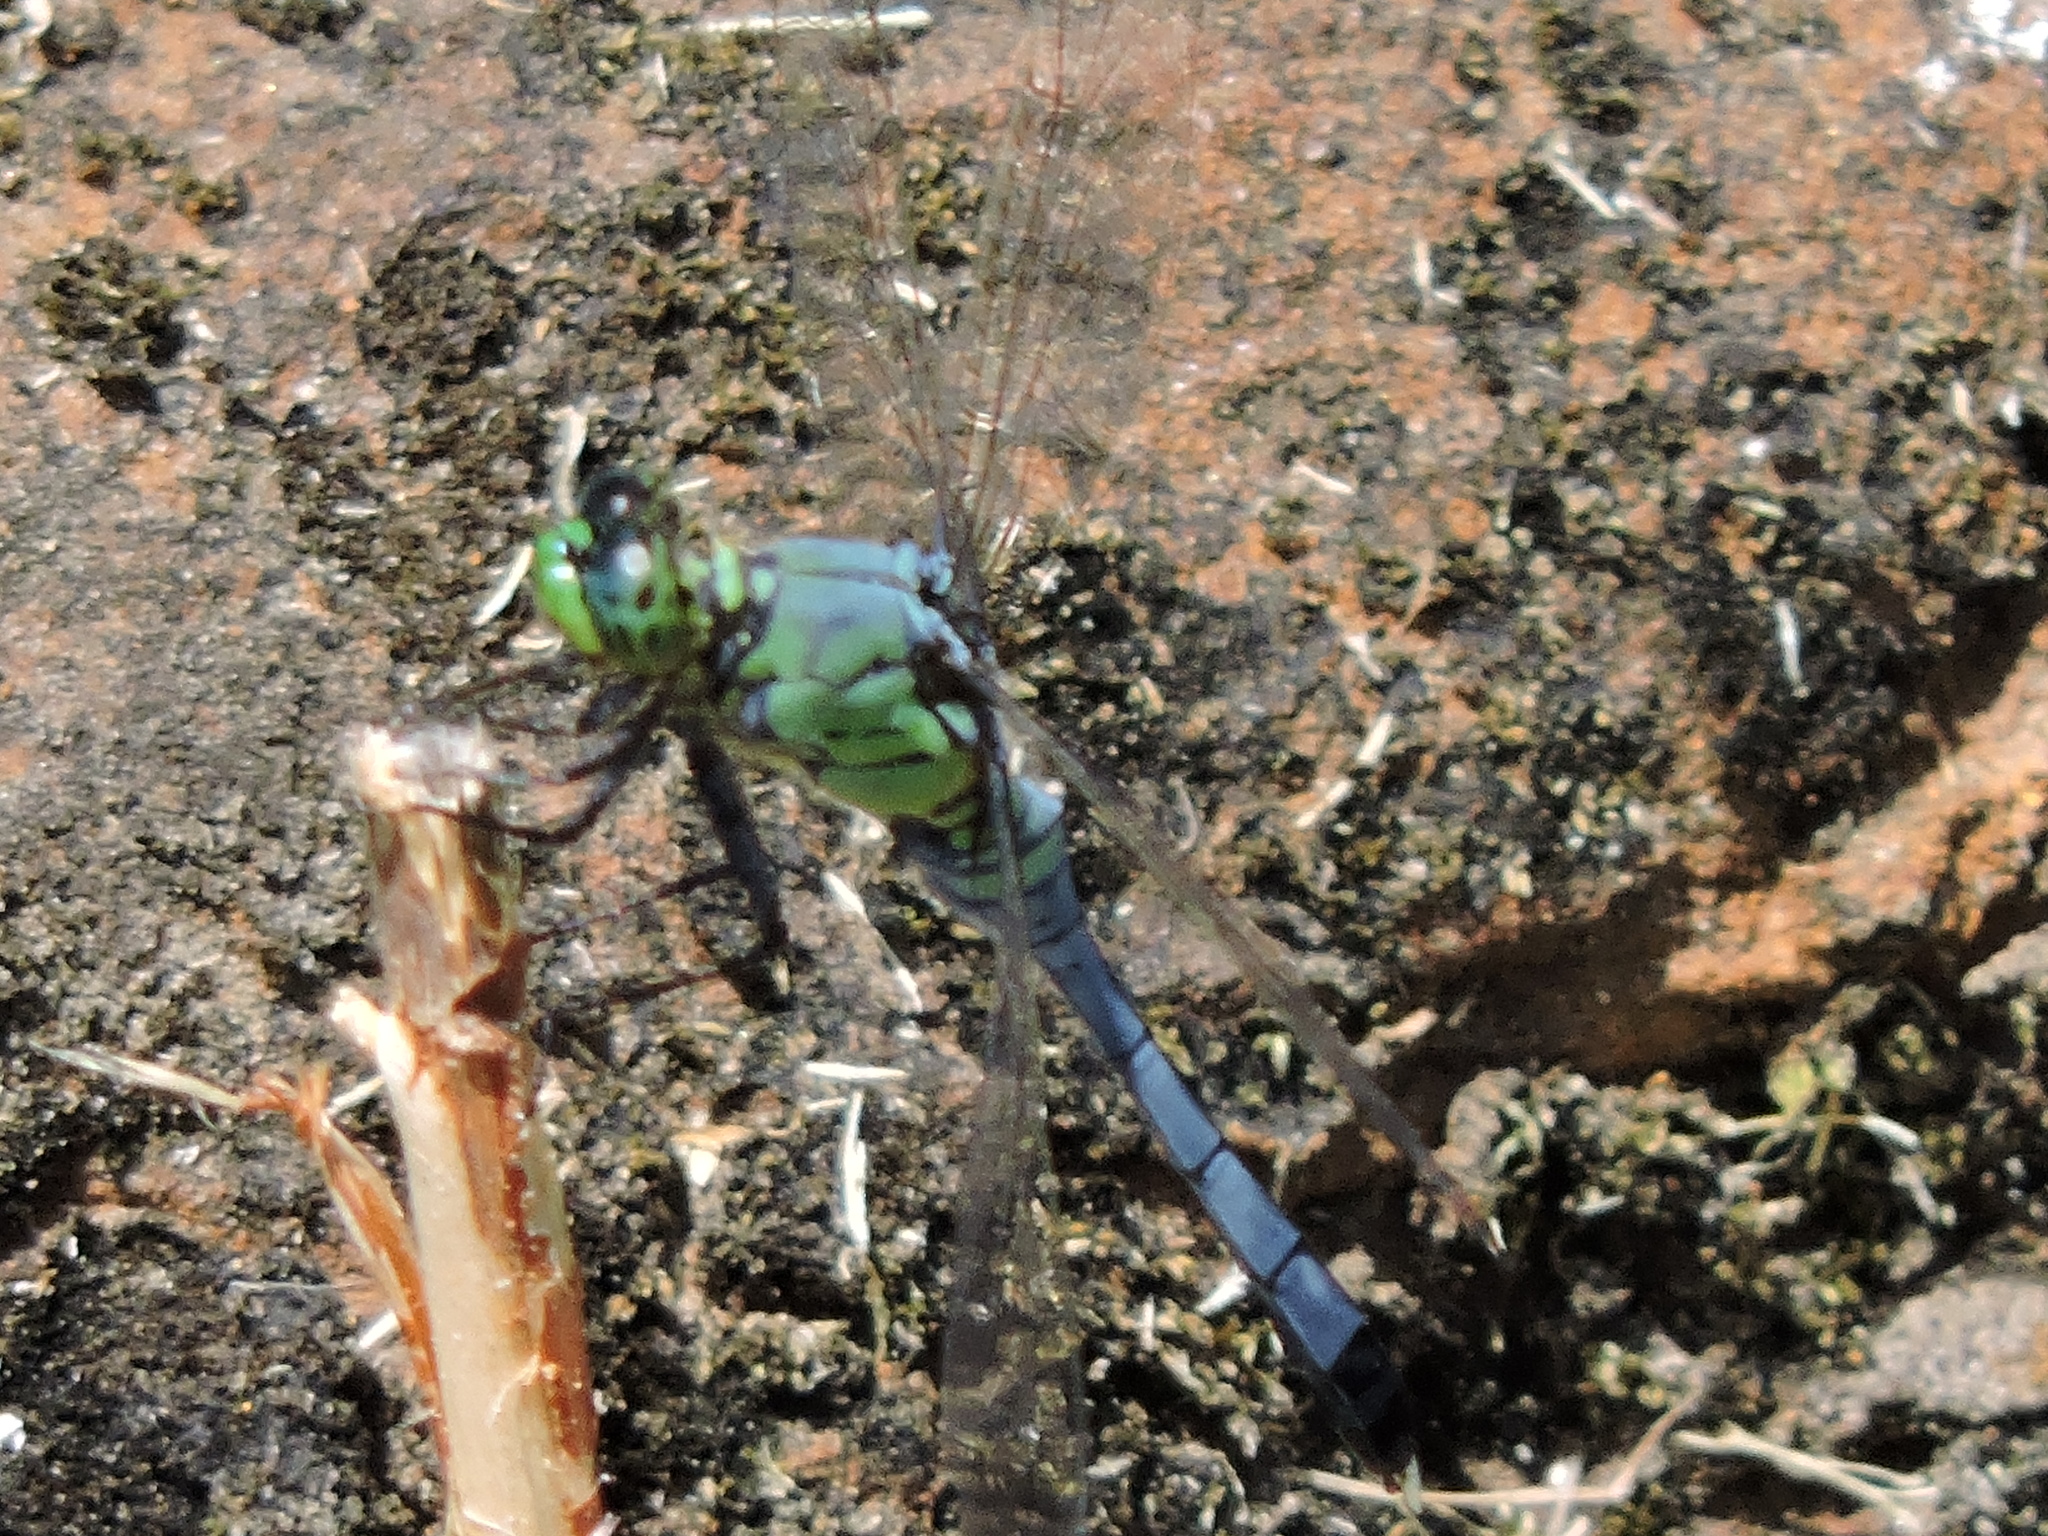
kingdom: Animalia
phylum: Arthropoda
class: Insecta
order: Odonata
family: Libellulidae
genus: Erythemis
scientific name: Erythemis simplicicollis
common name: Eastern pondhawk
